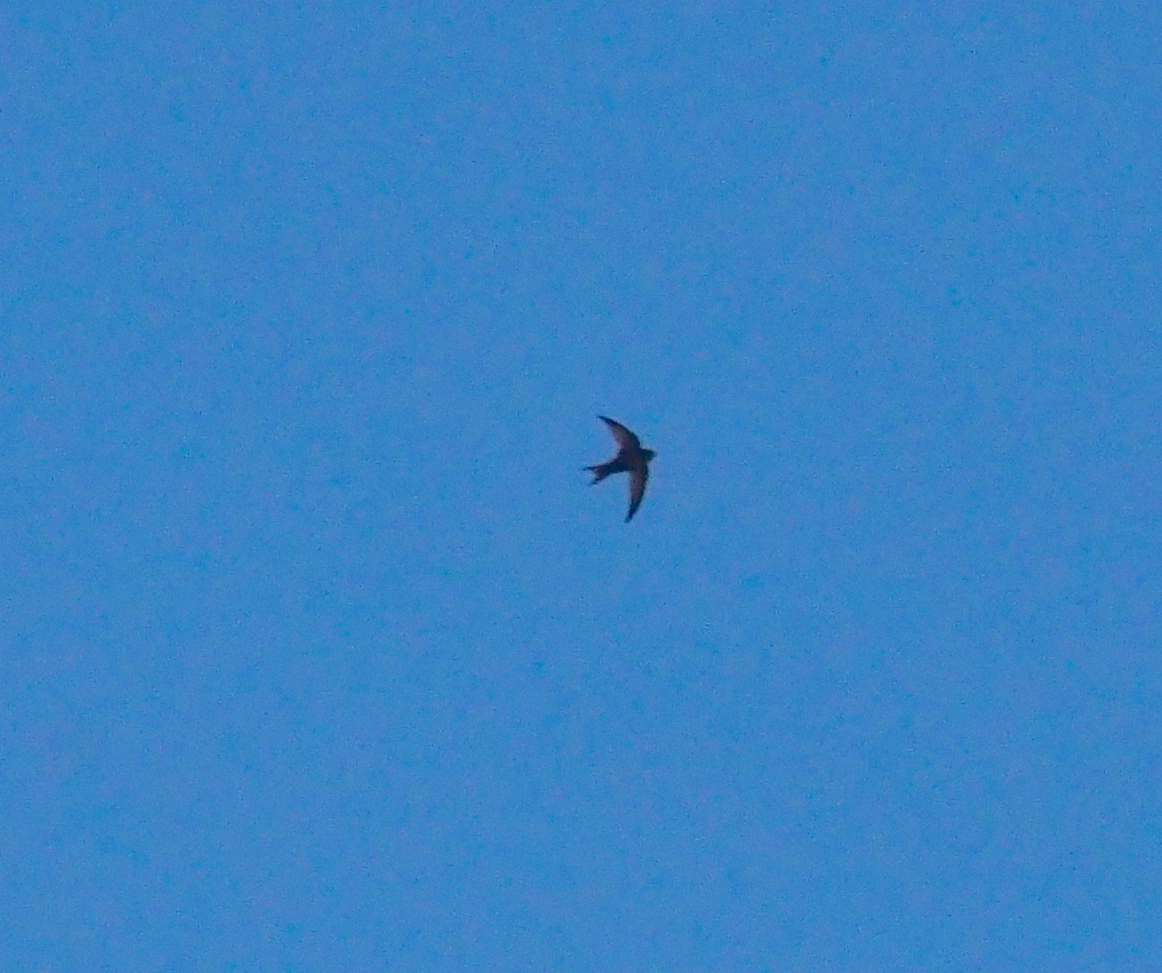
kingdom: Animalia
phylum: Chordata
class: Aves
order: Apodiformes
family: Apodidae
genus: Apus
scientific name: Apus apus
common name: Common swift
